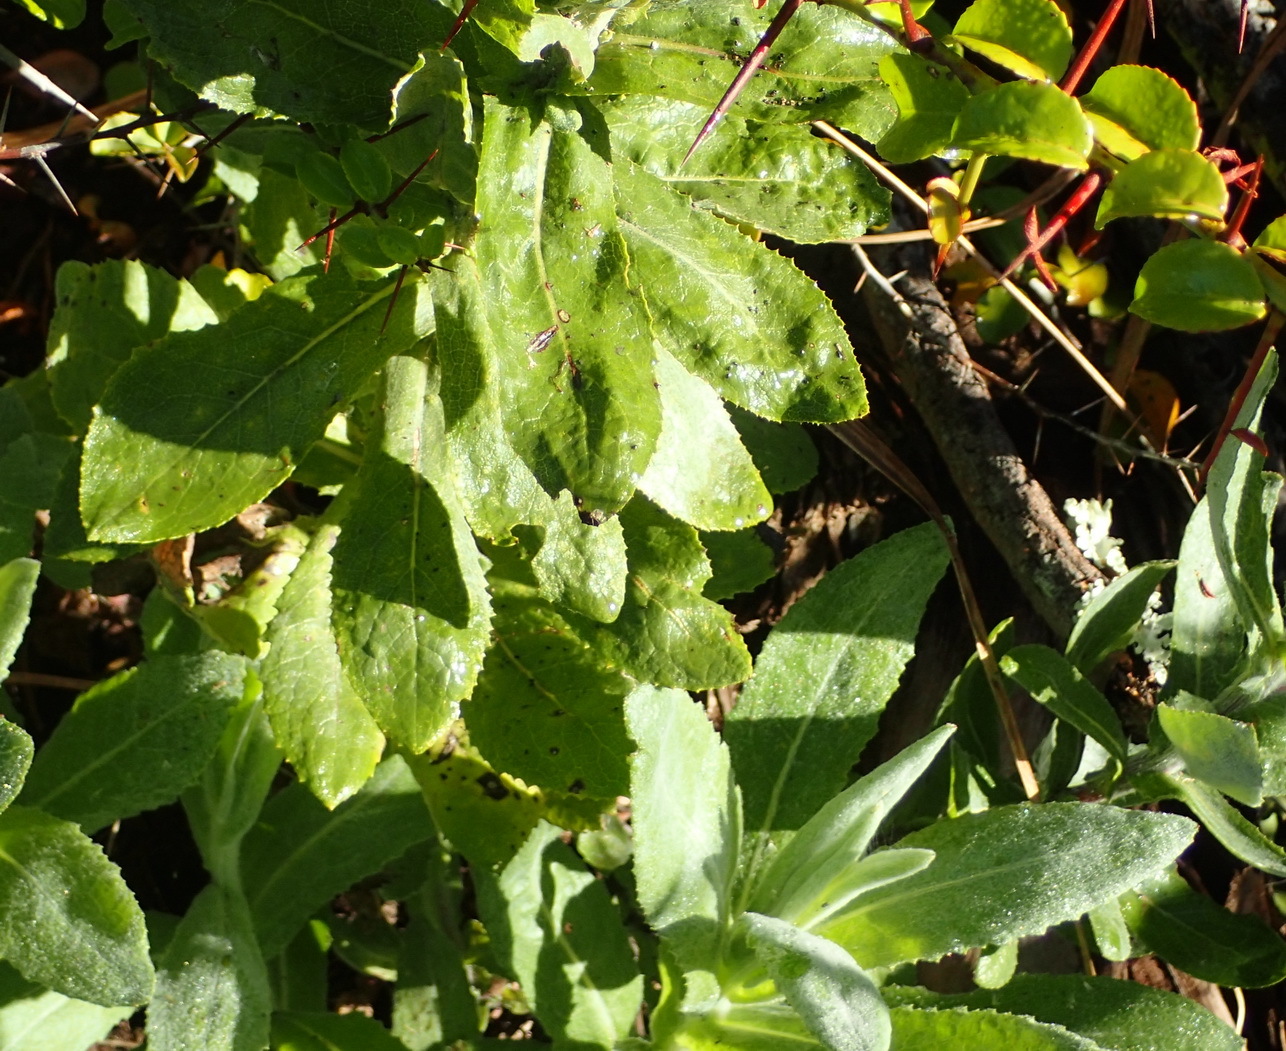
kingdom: Plantae
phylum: Tracheophyta
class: Magnoliopsida
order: Asterales
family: Asteraceae
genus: Senecio
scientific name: Senecio lanceus
